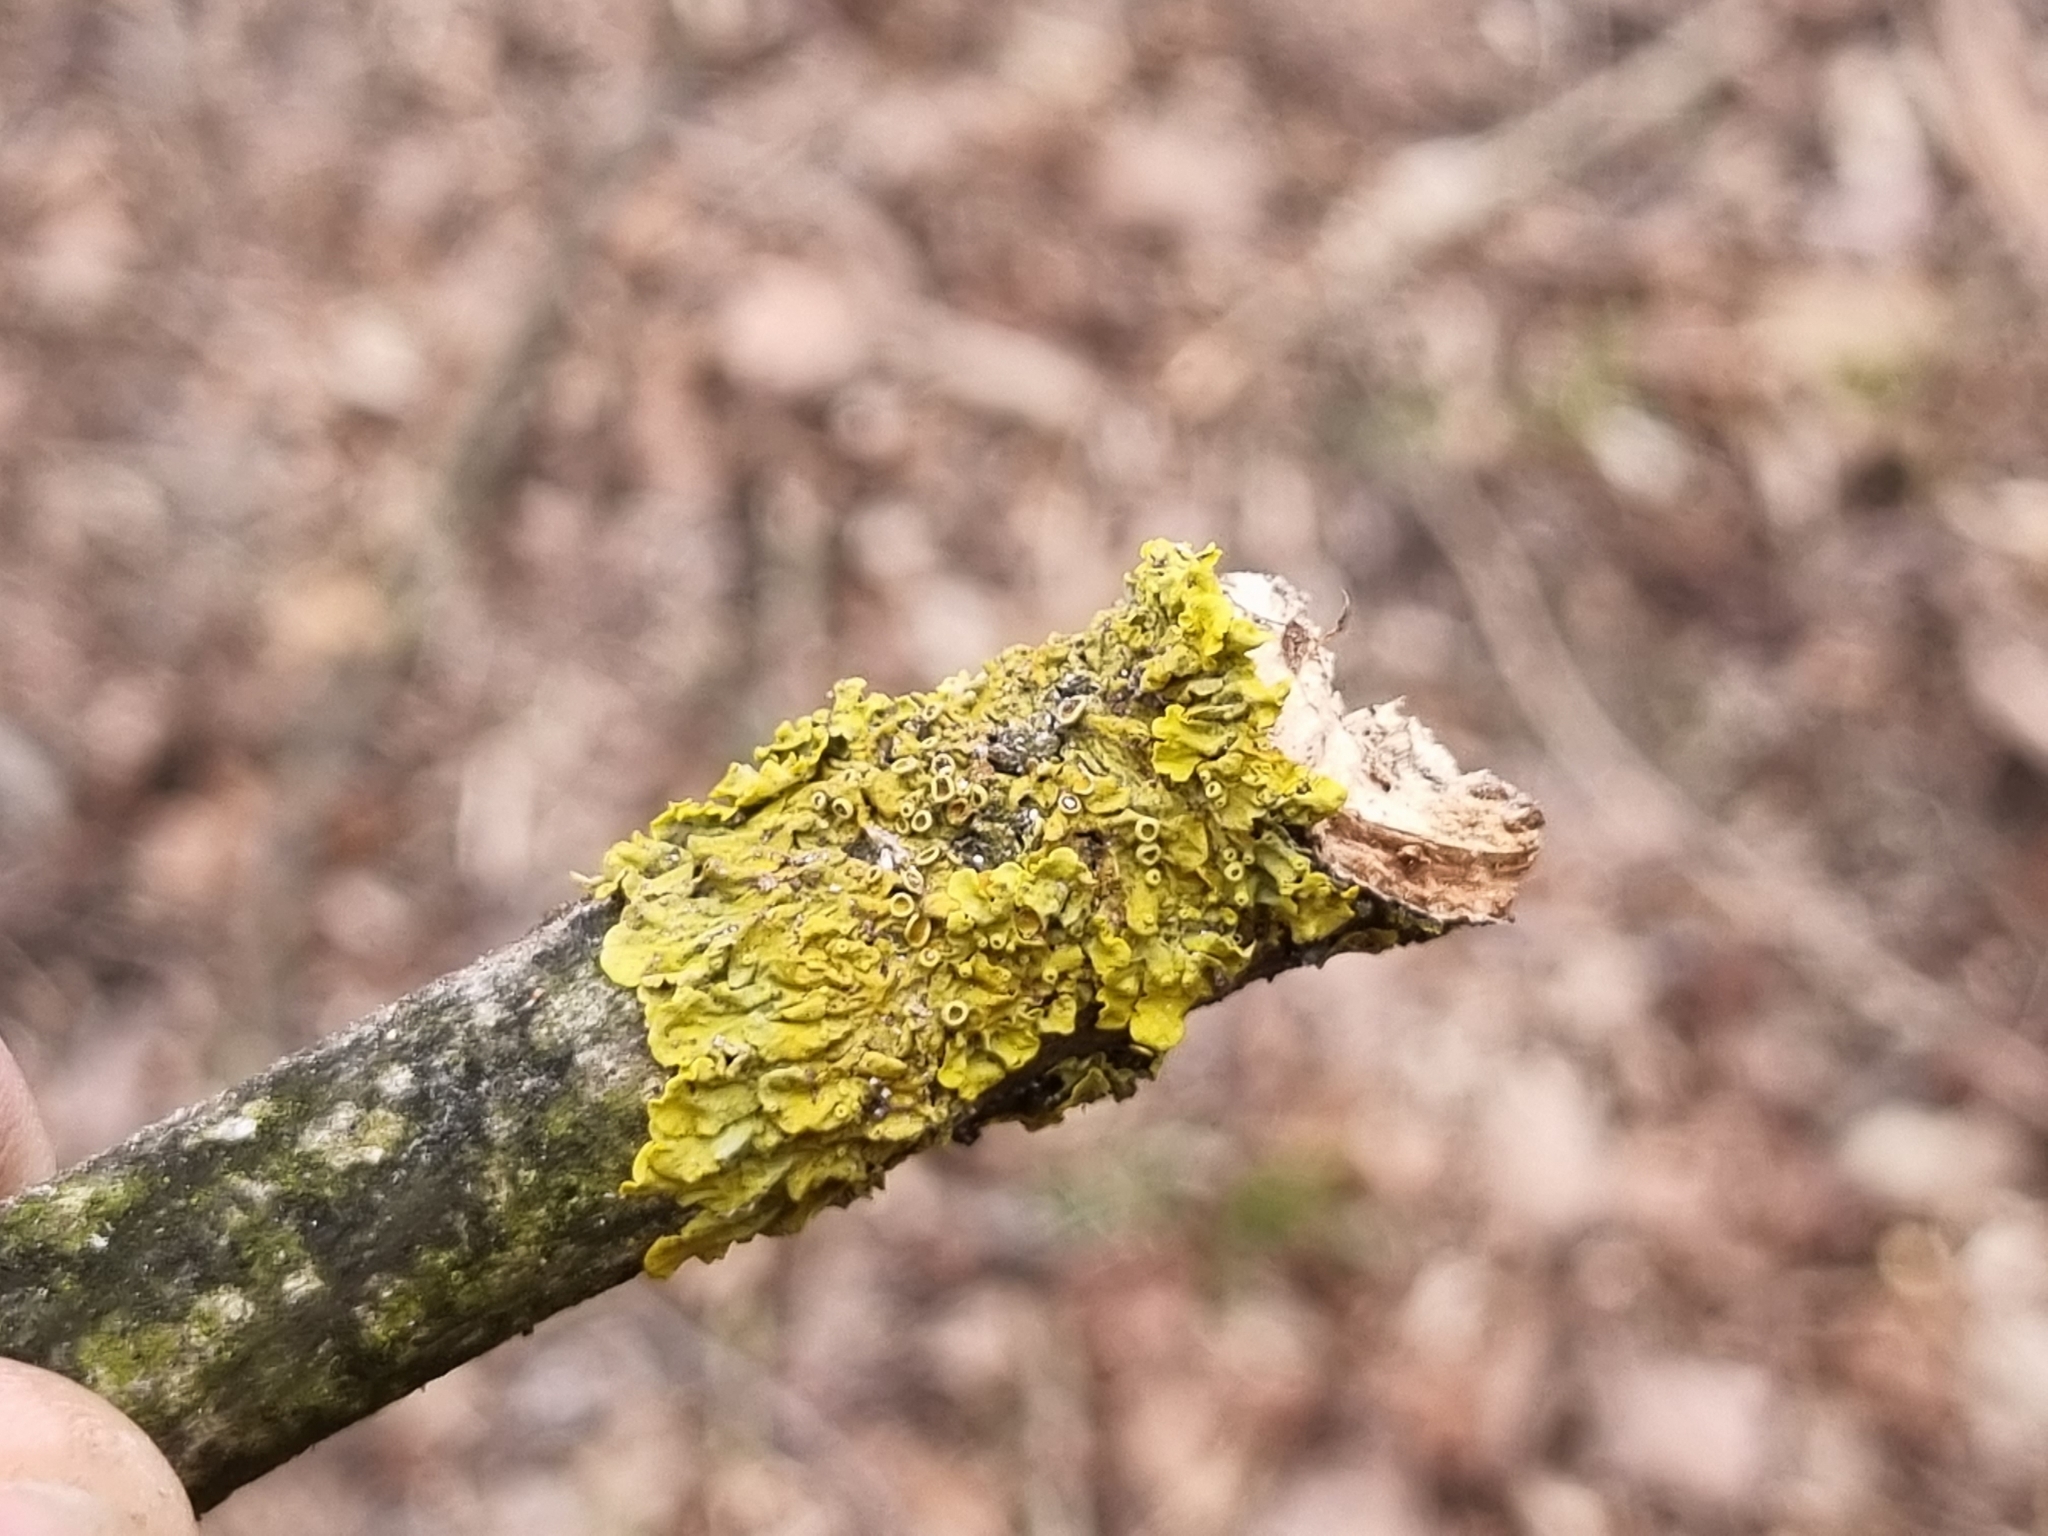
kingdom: Fungi
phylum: Ascomycota
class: Lecanoromycetes
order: Teloschistales
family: Teloschistaceae
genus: Xanthoria
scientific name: Xanthoria parietina
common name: Common orange lichen
